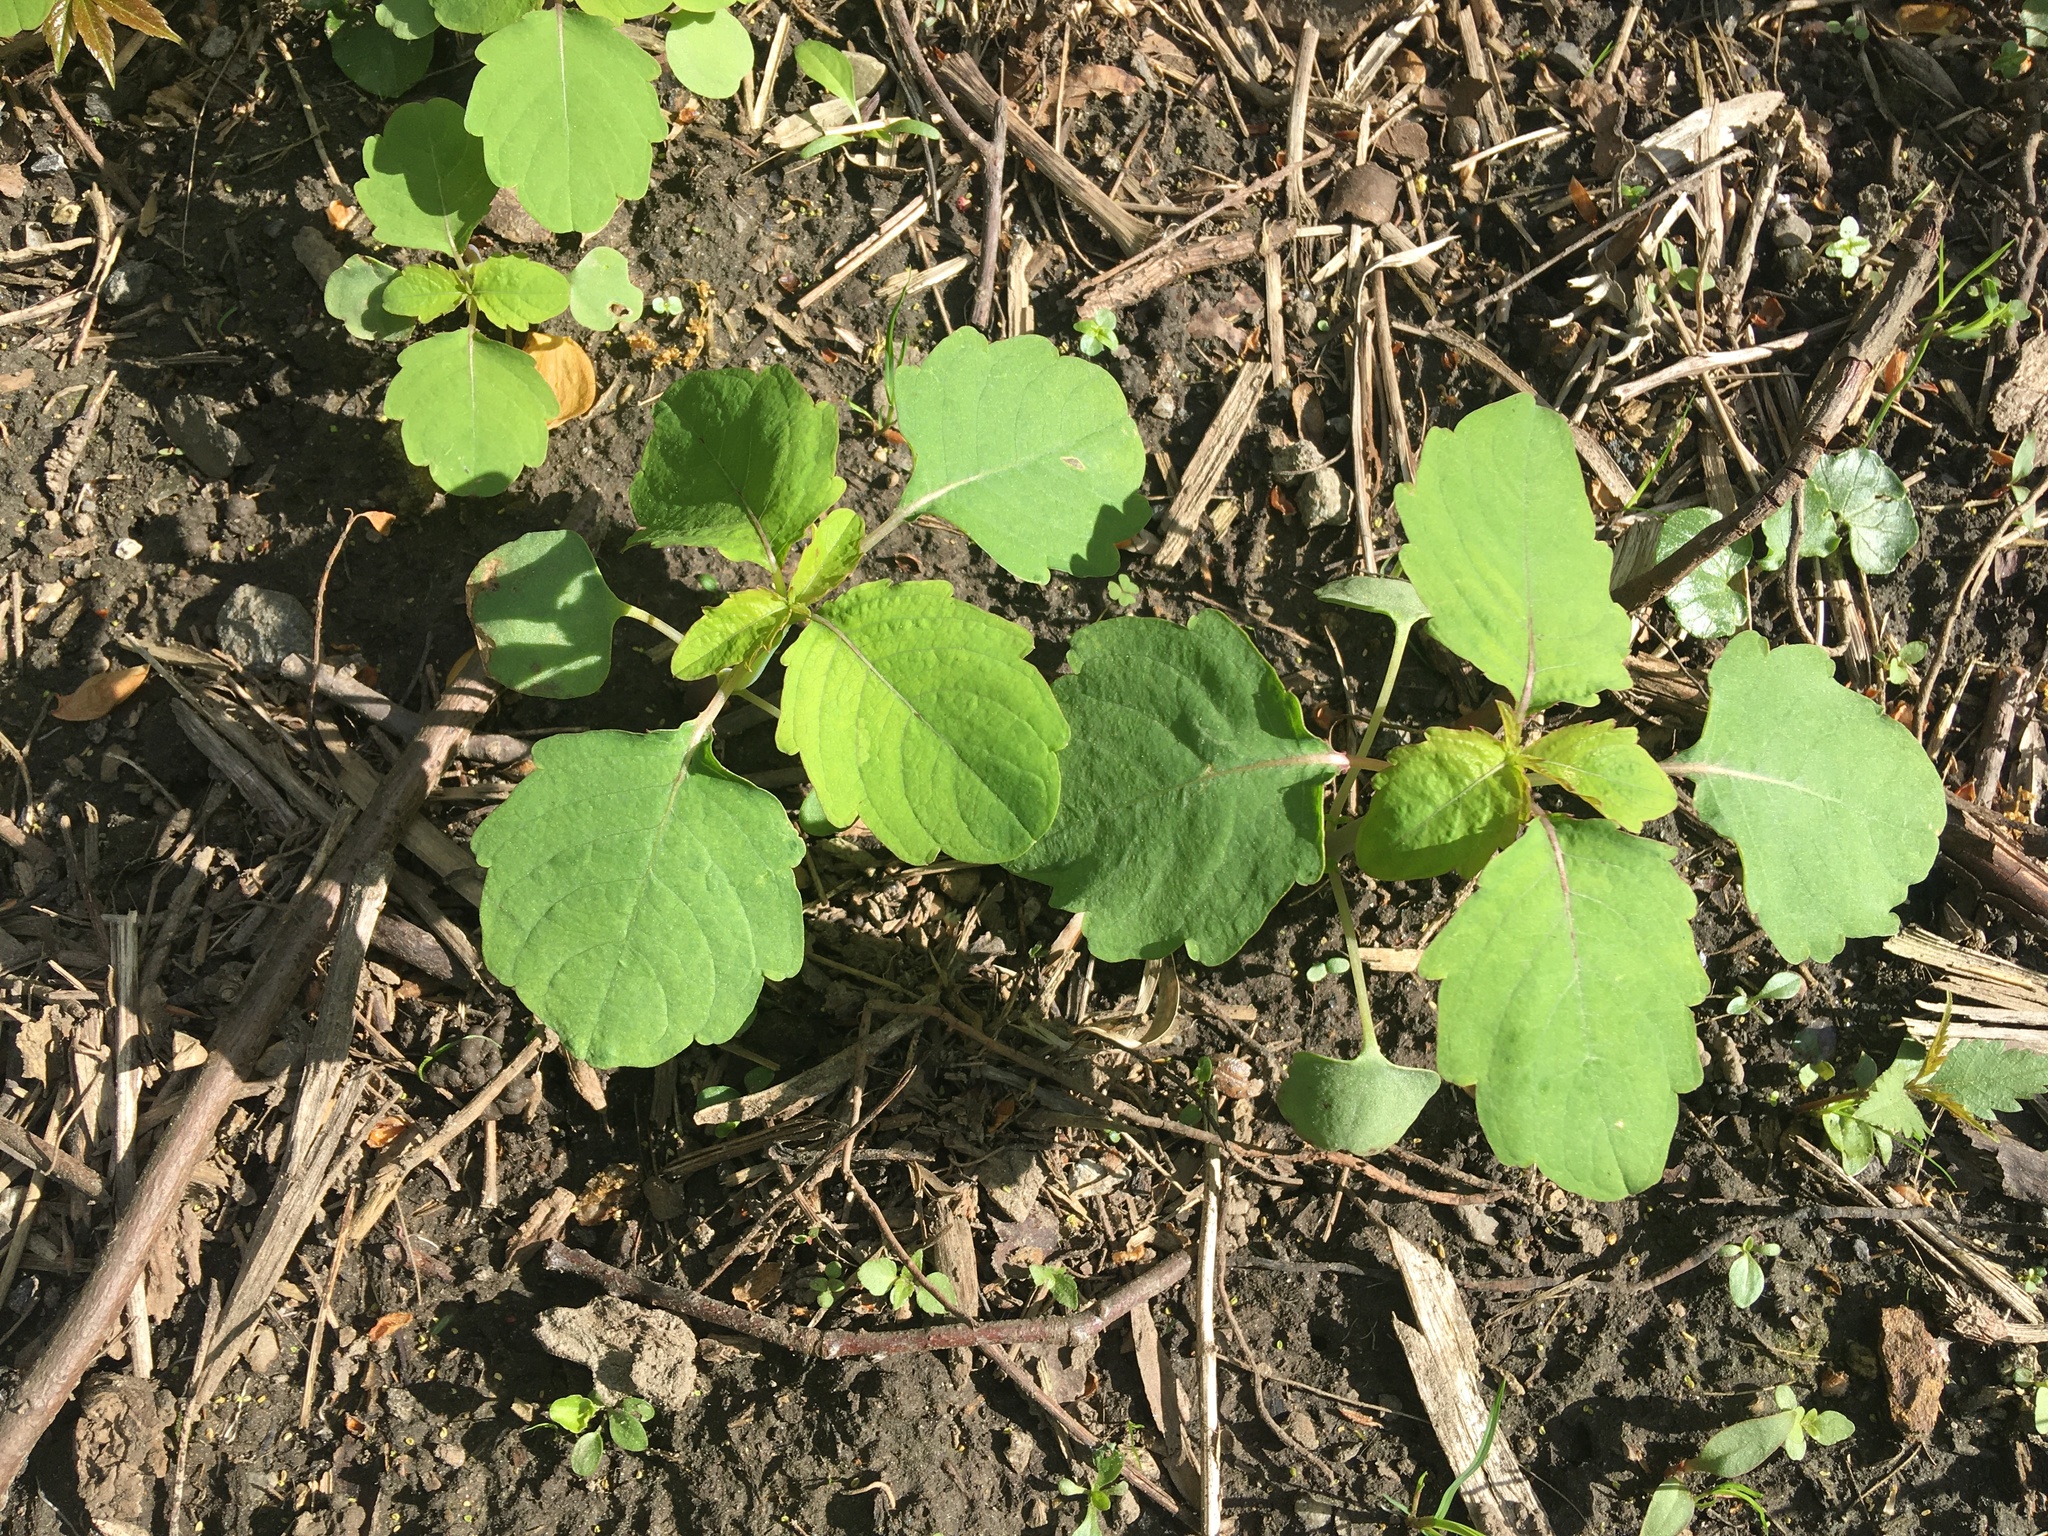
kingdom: Plantae
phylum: Tracheophyta
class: Magnoliopsida
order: Ericales
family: Balsaminaceae
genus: Impatiens
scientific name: Impatiens capensis
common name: Orange balsam
